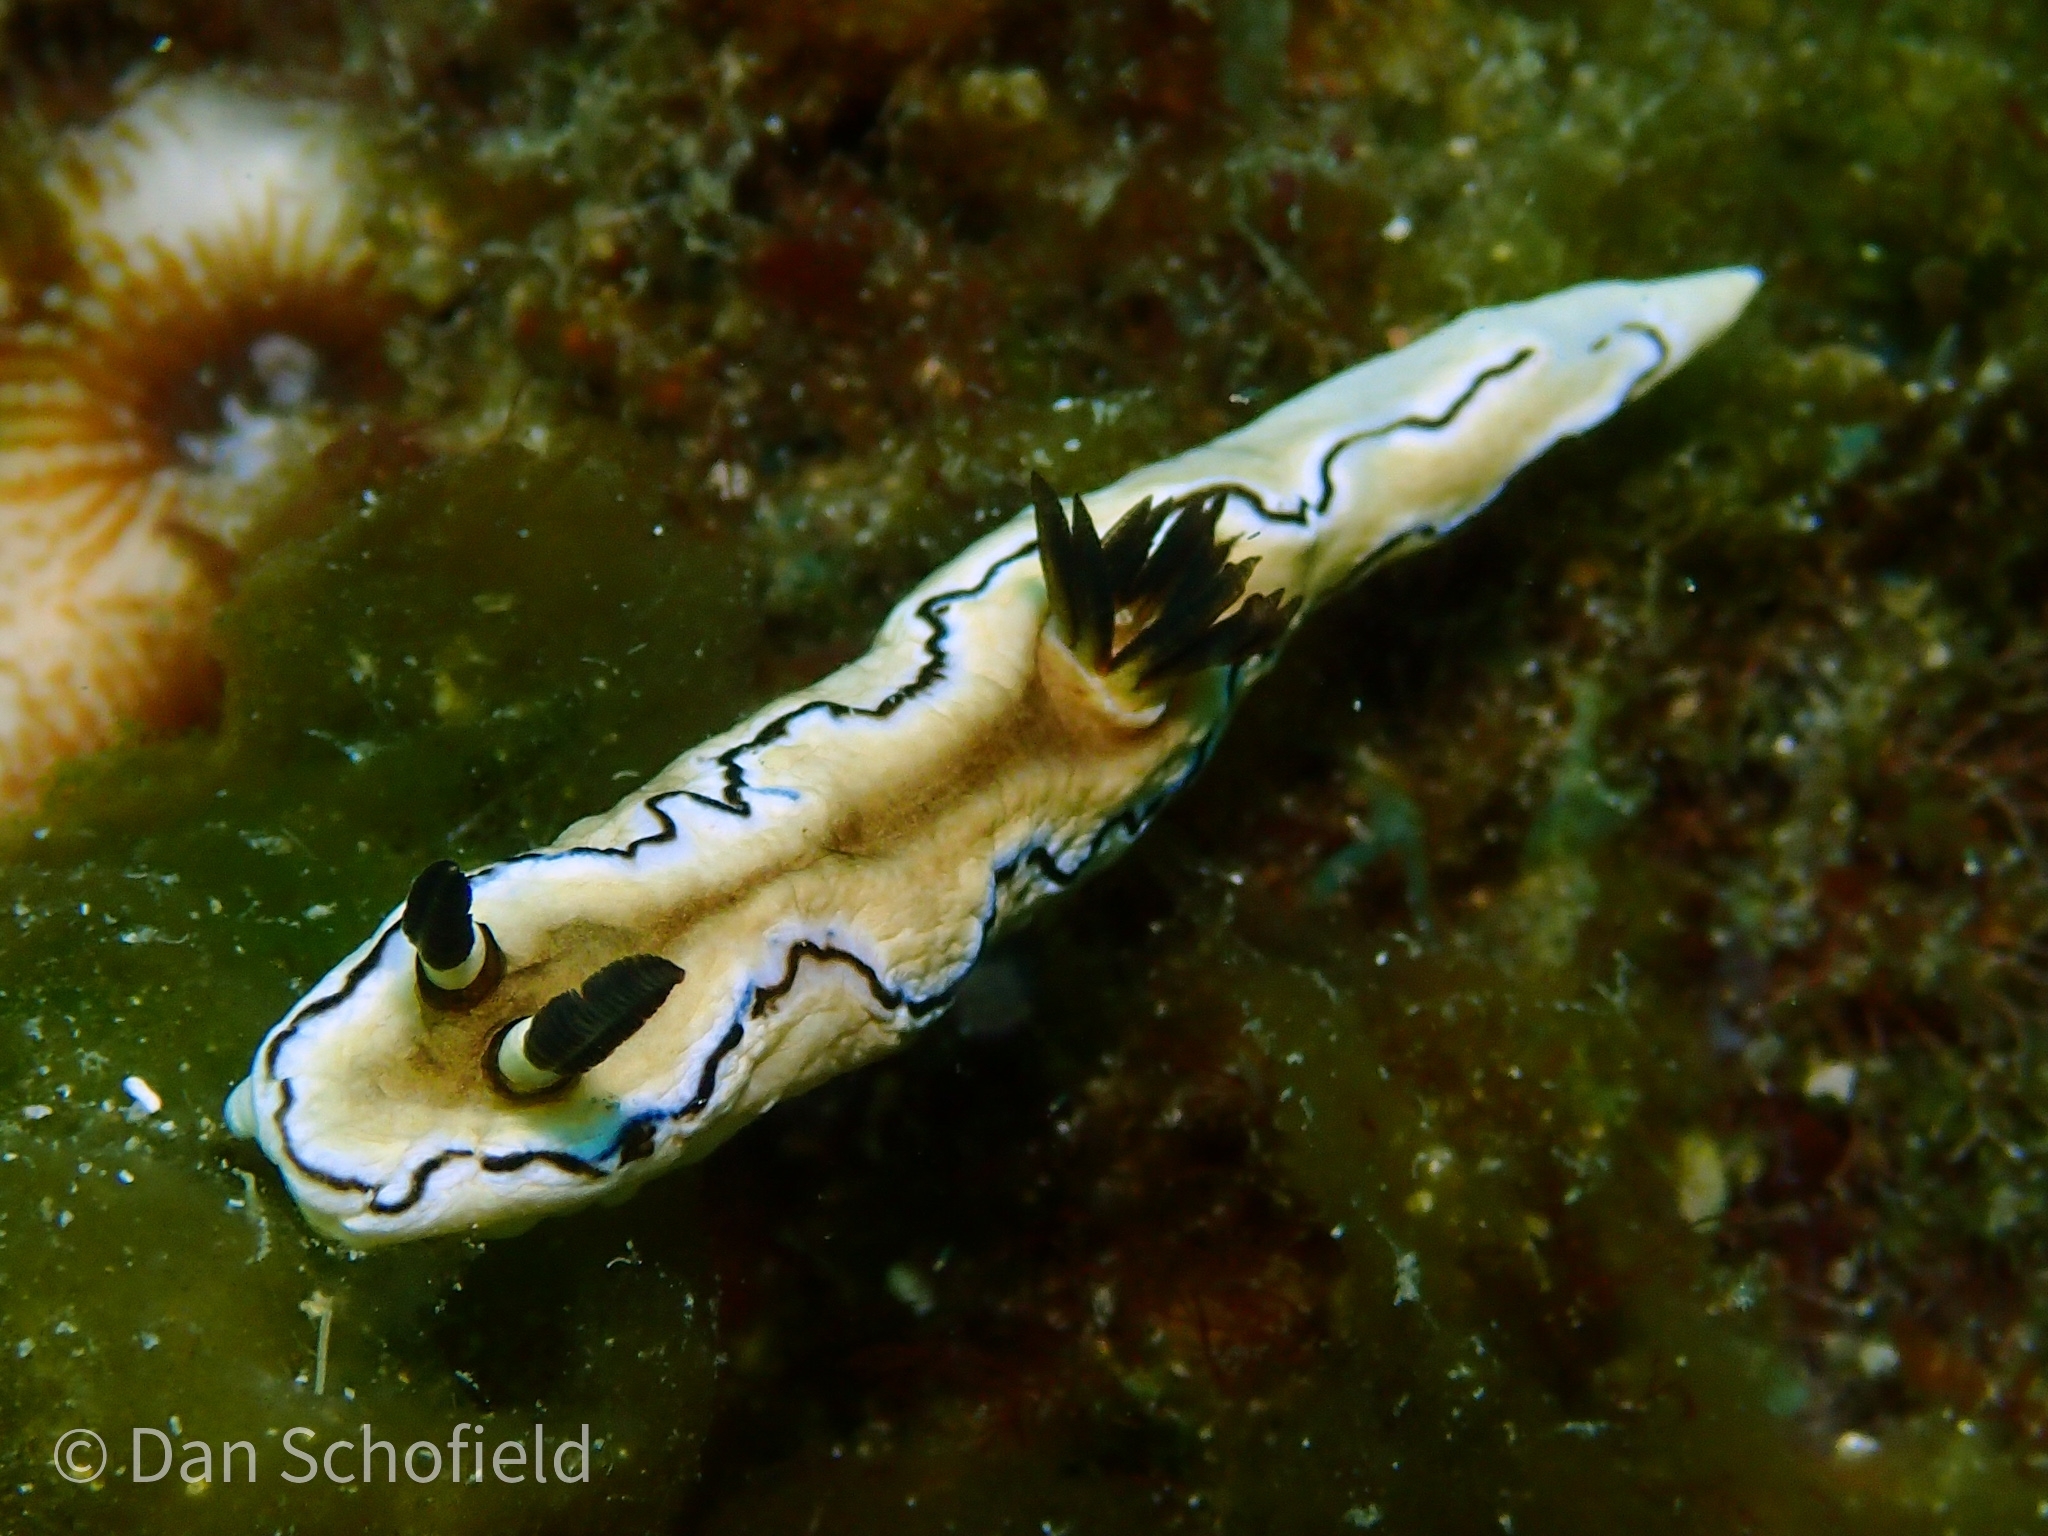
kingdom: Animalia
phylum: Mollusca
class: Gastropoda
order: Nudibranchia
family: Chromodorididae
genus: Doriprismatica
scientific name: Doriprismatica atromarginata
